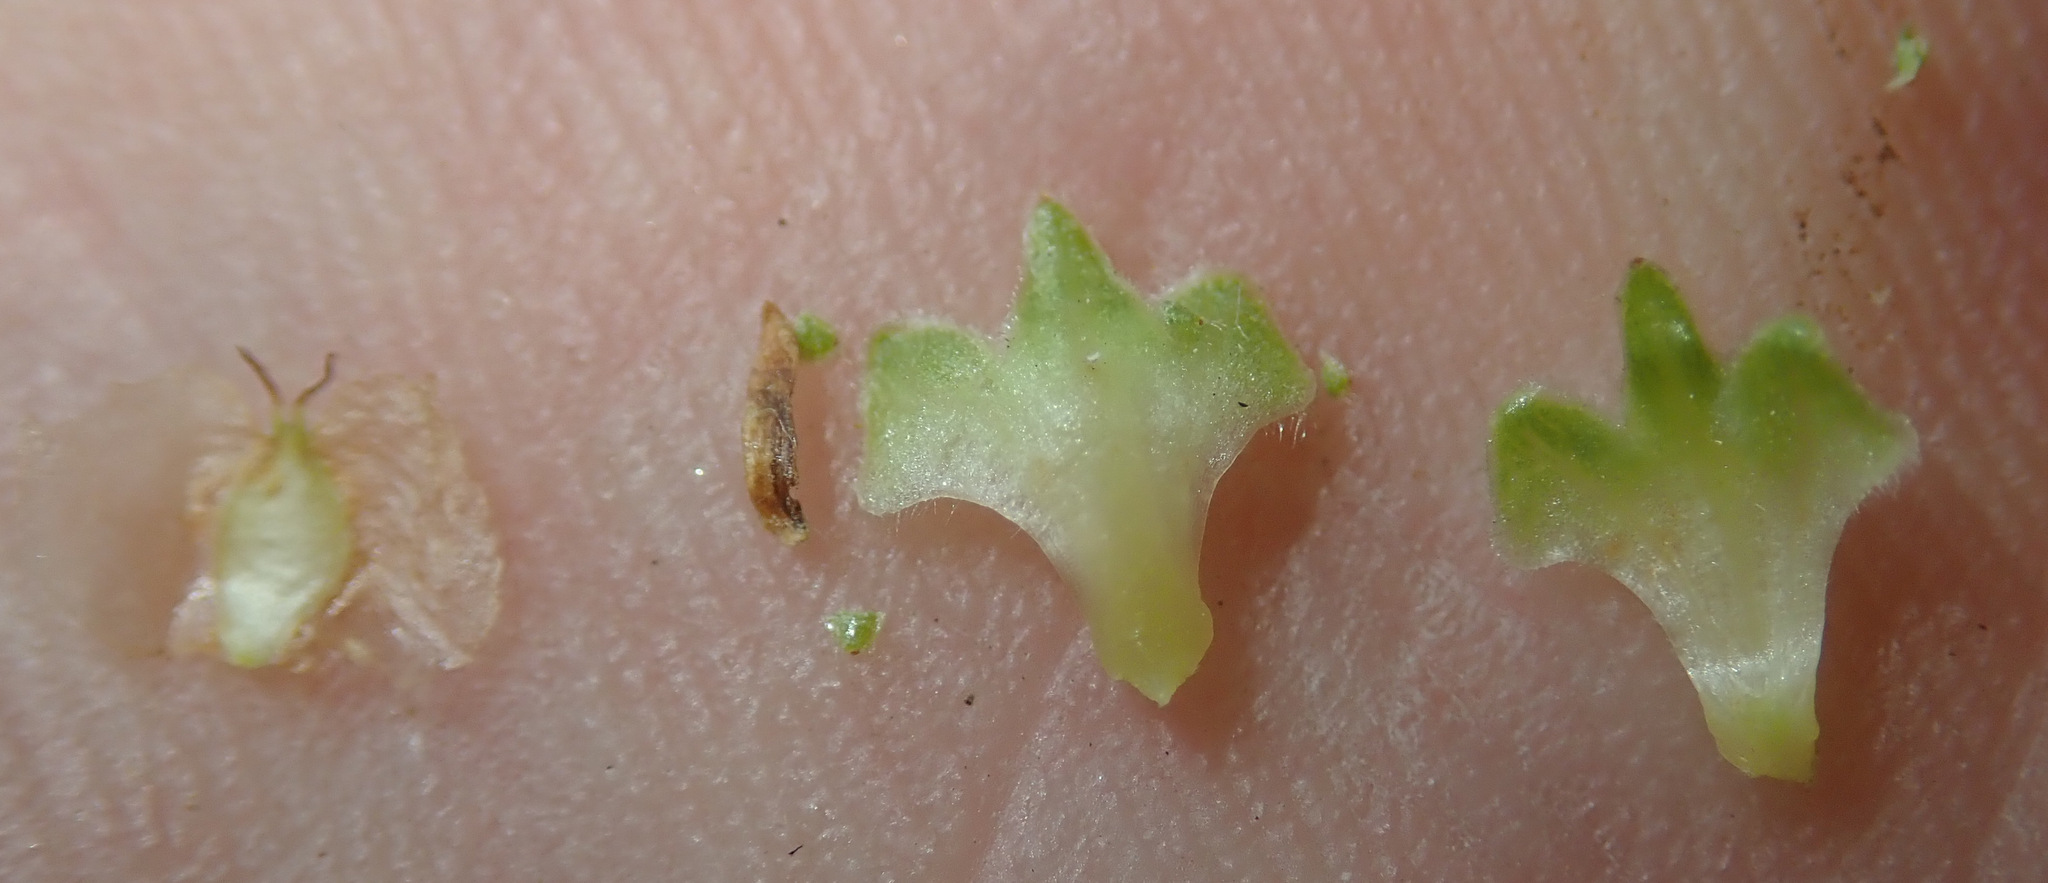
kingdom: Plantae
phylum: Tracheophyta
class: Magnoliopsida
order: Fagales
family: Betulaceae
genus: Betula
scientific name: Betula pubescens
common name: Downy birch
